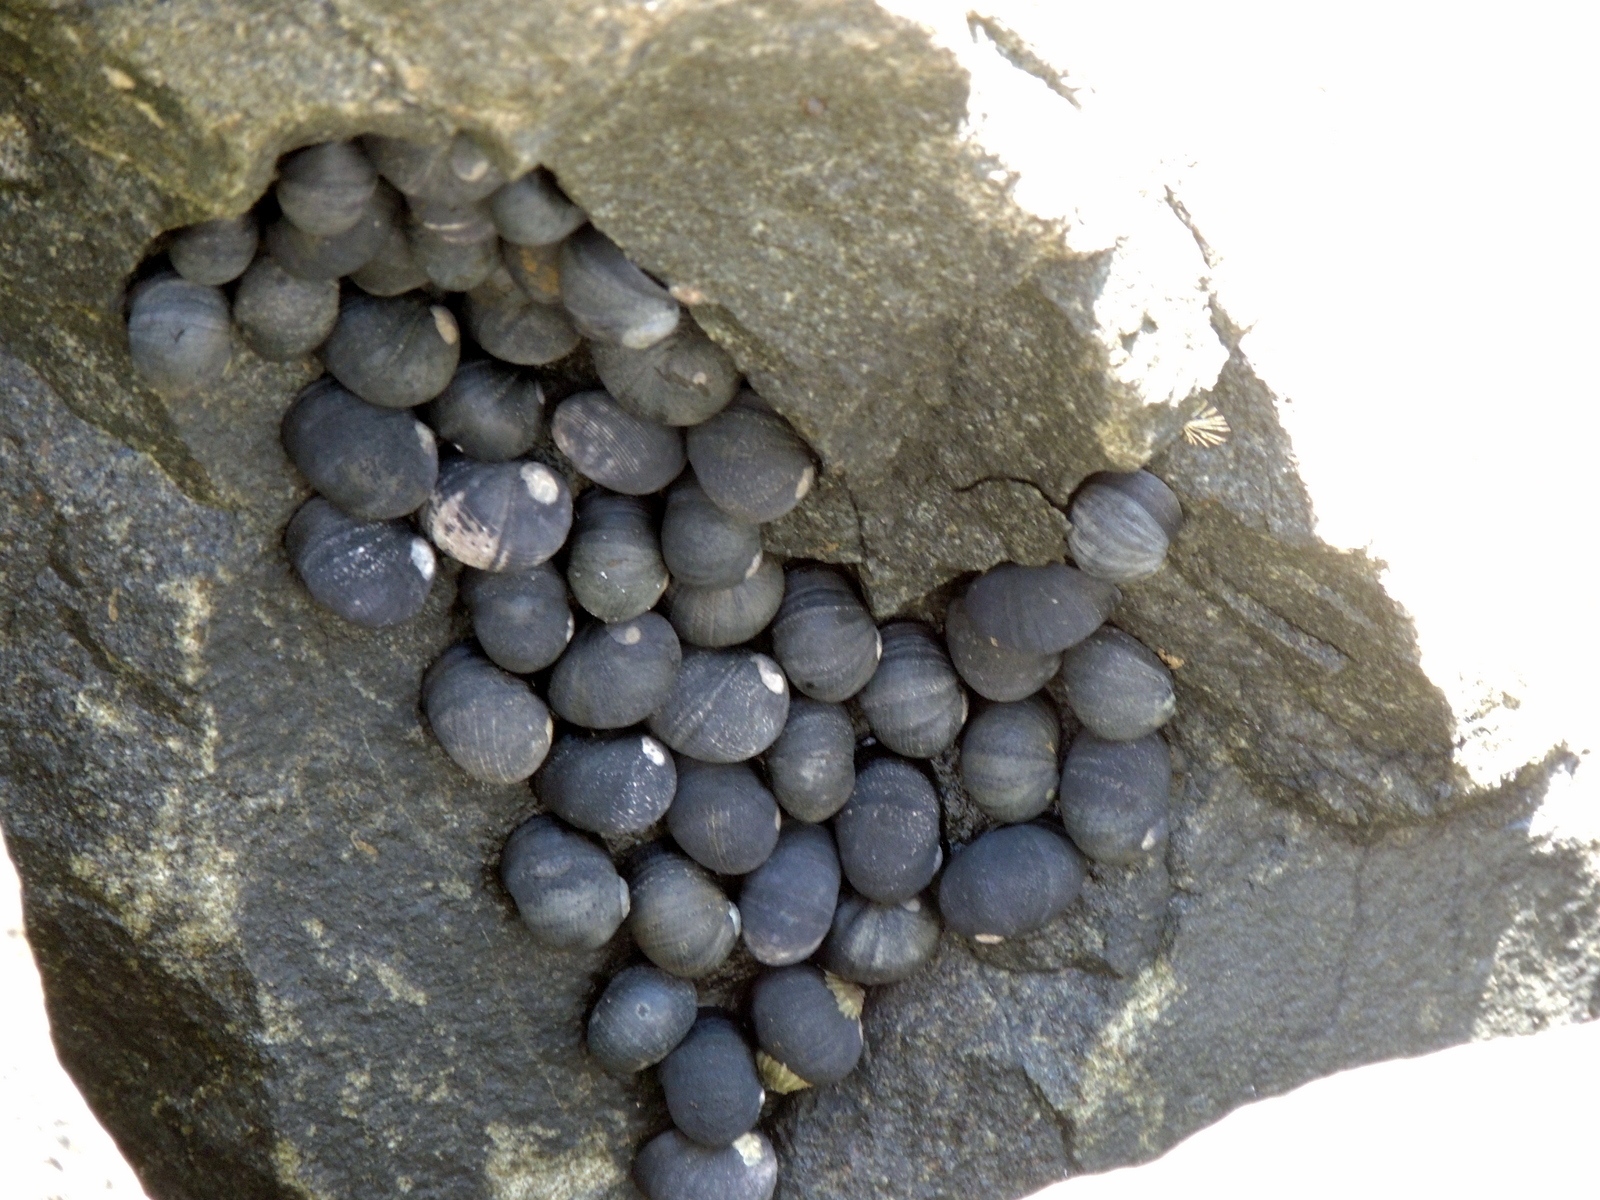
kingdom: Animalia
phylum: Mollusca
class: Gastropoda
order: Cycloneritida
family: Neritidae
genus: Nerita
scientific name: Nerita atramentosa
